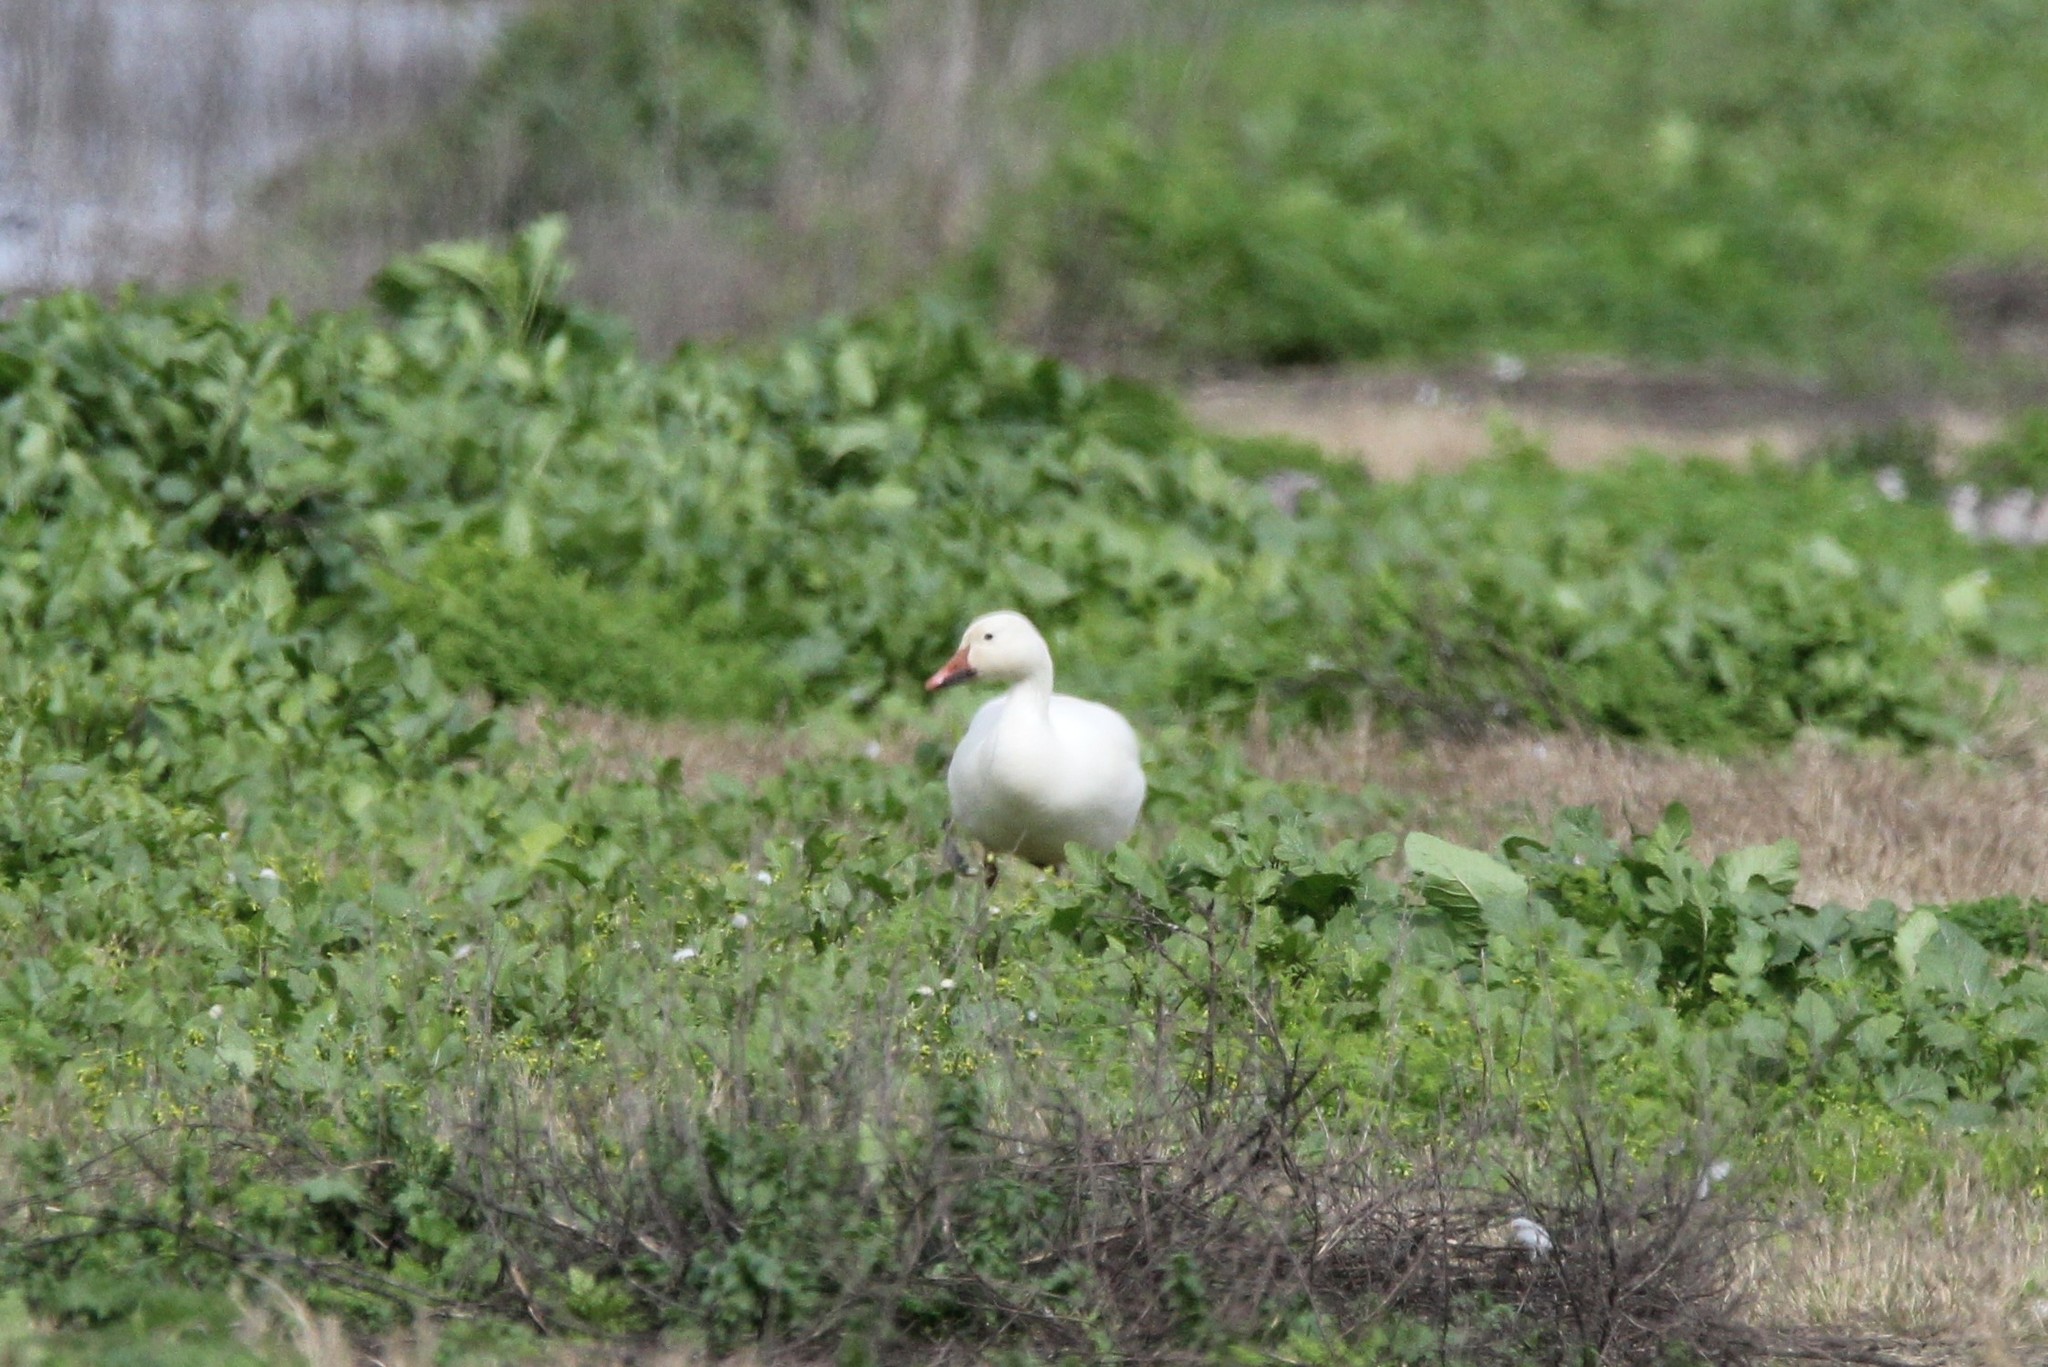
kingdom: Animalia
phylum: Chordata
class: Aves
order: Anseriformes
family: Anatidae
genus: Anser
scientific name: Anser caerulescens
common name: Snow goose
